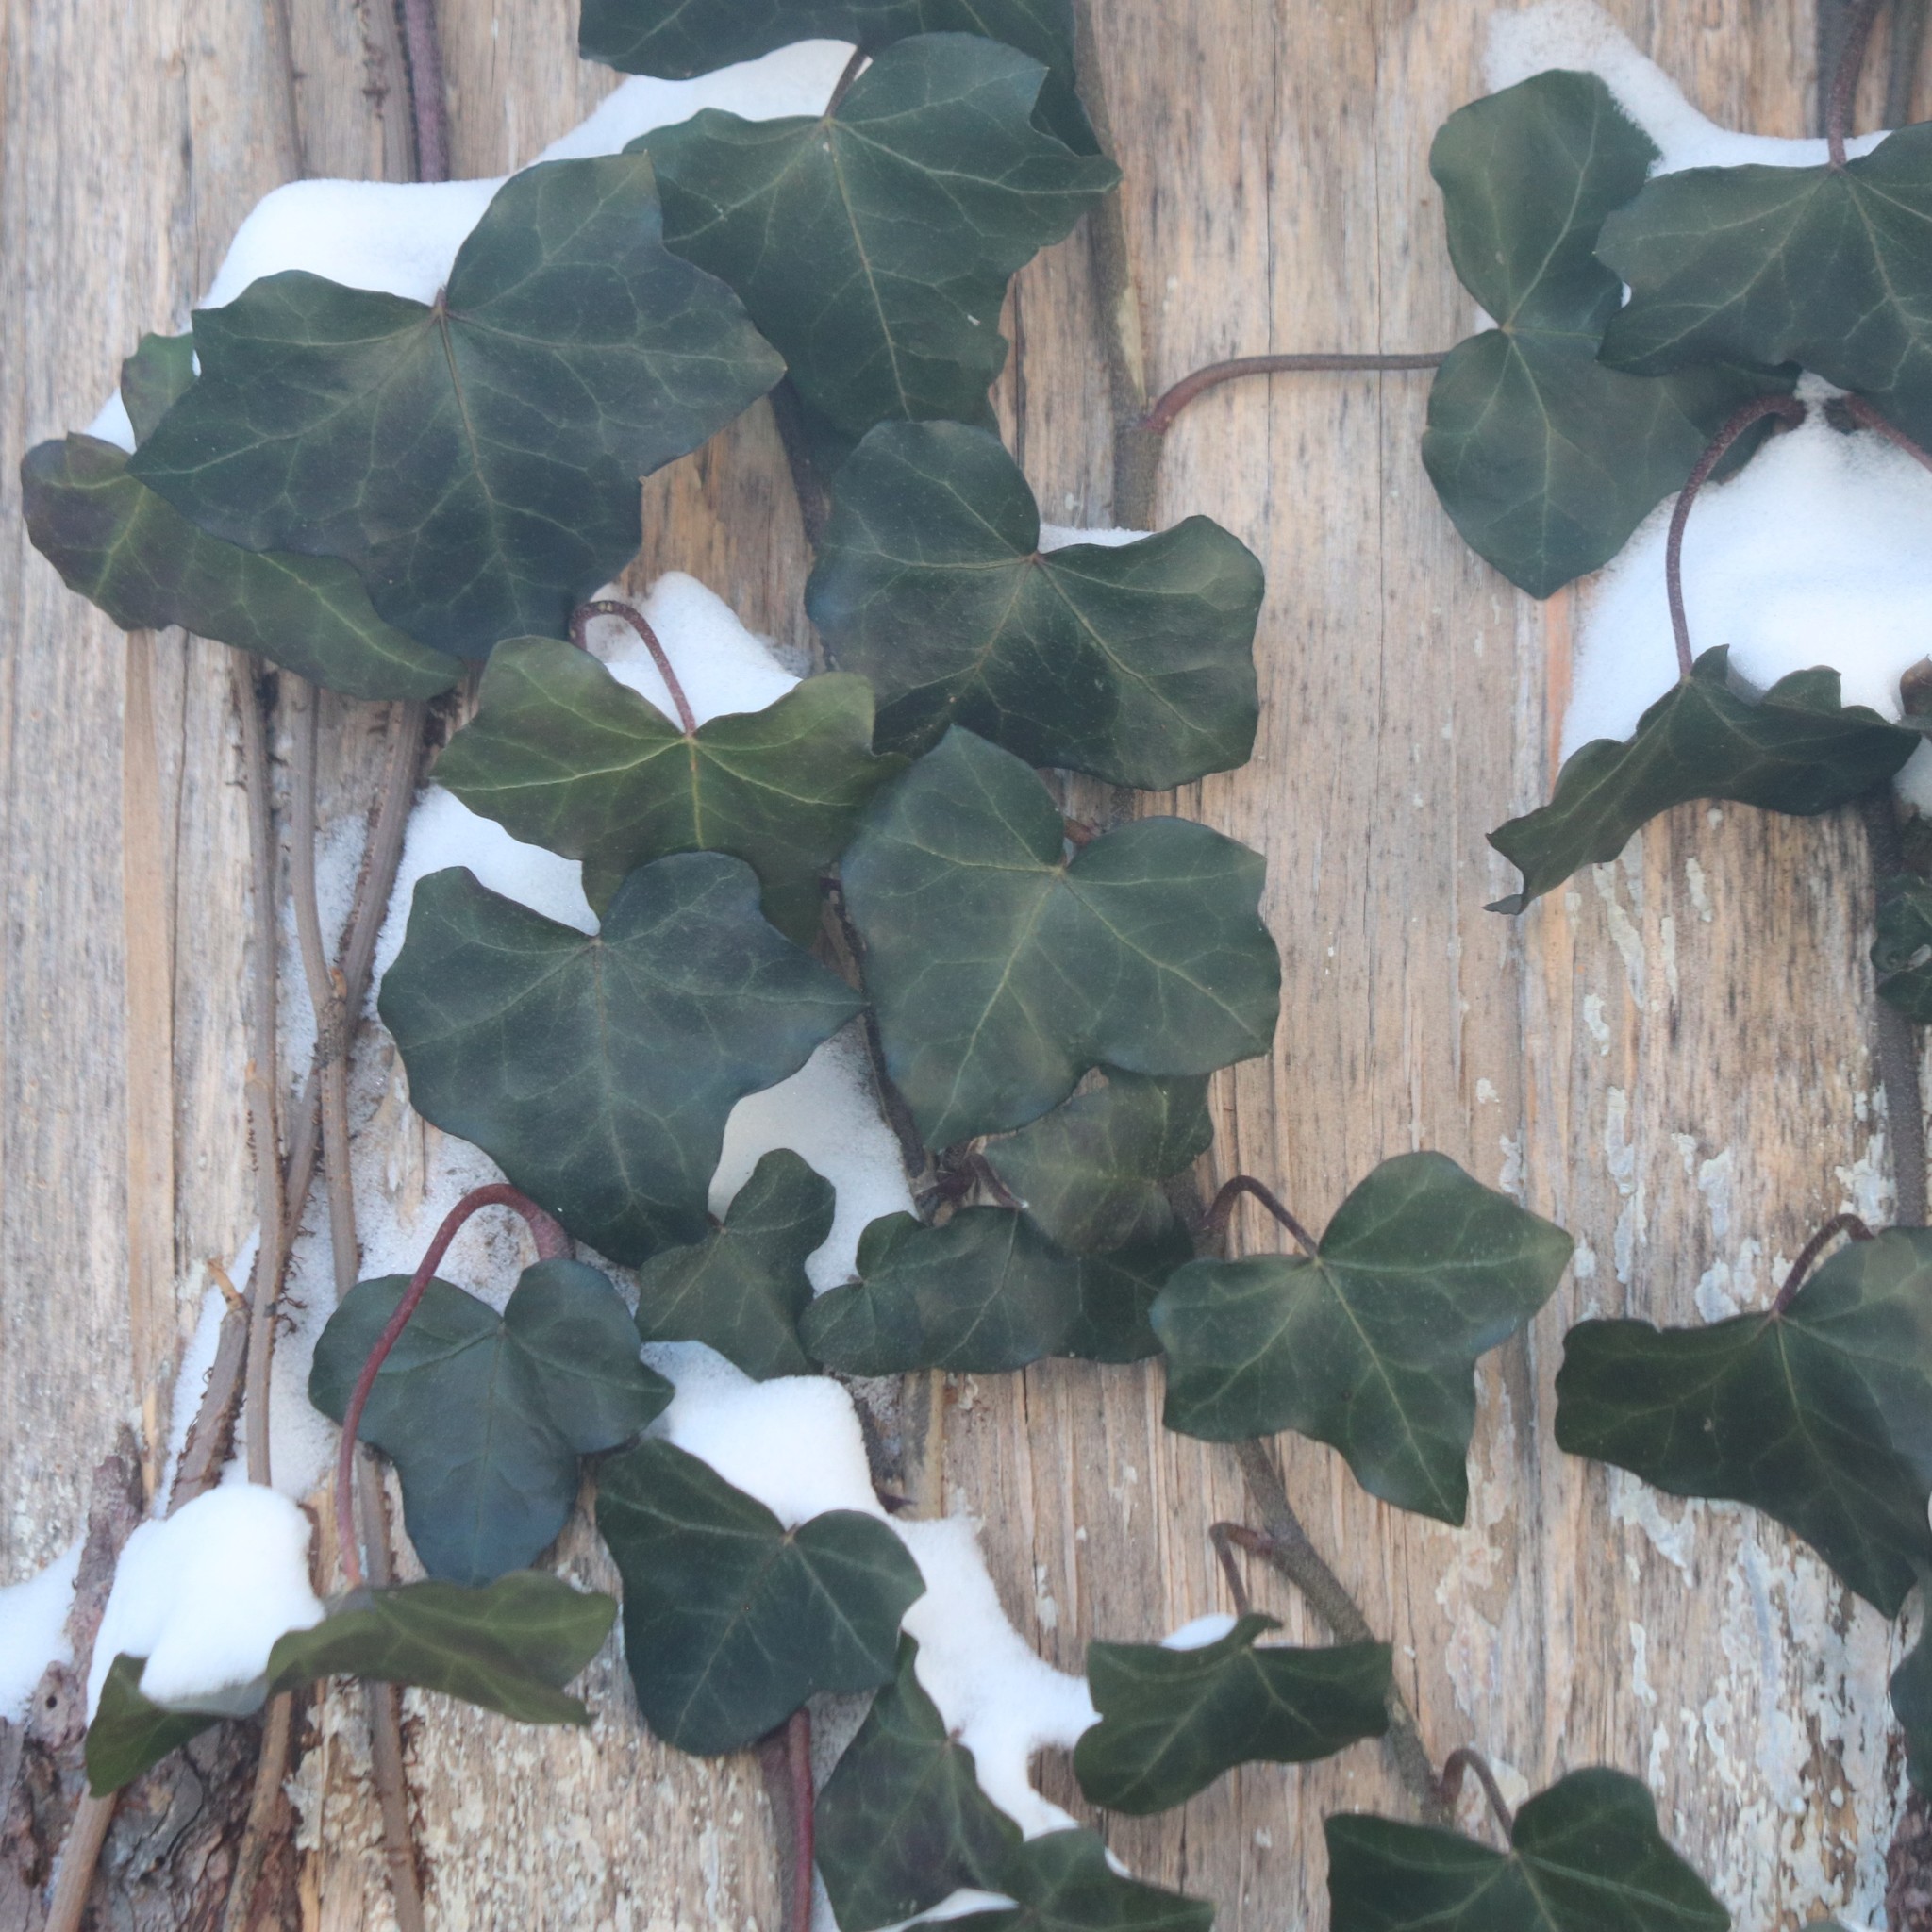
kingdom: Plantae
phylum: Tracheophyta
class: Magnoliopsida
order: Apiales
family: Araliaceae
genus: Hedera
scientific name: Hedera helix
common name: Ivy
